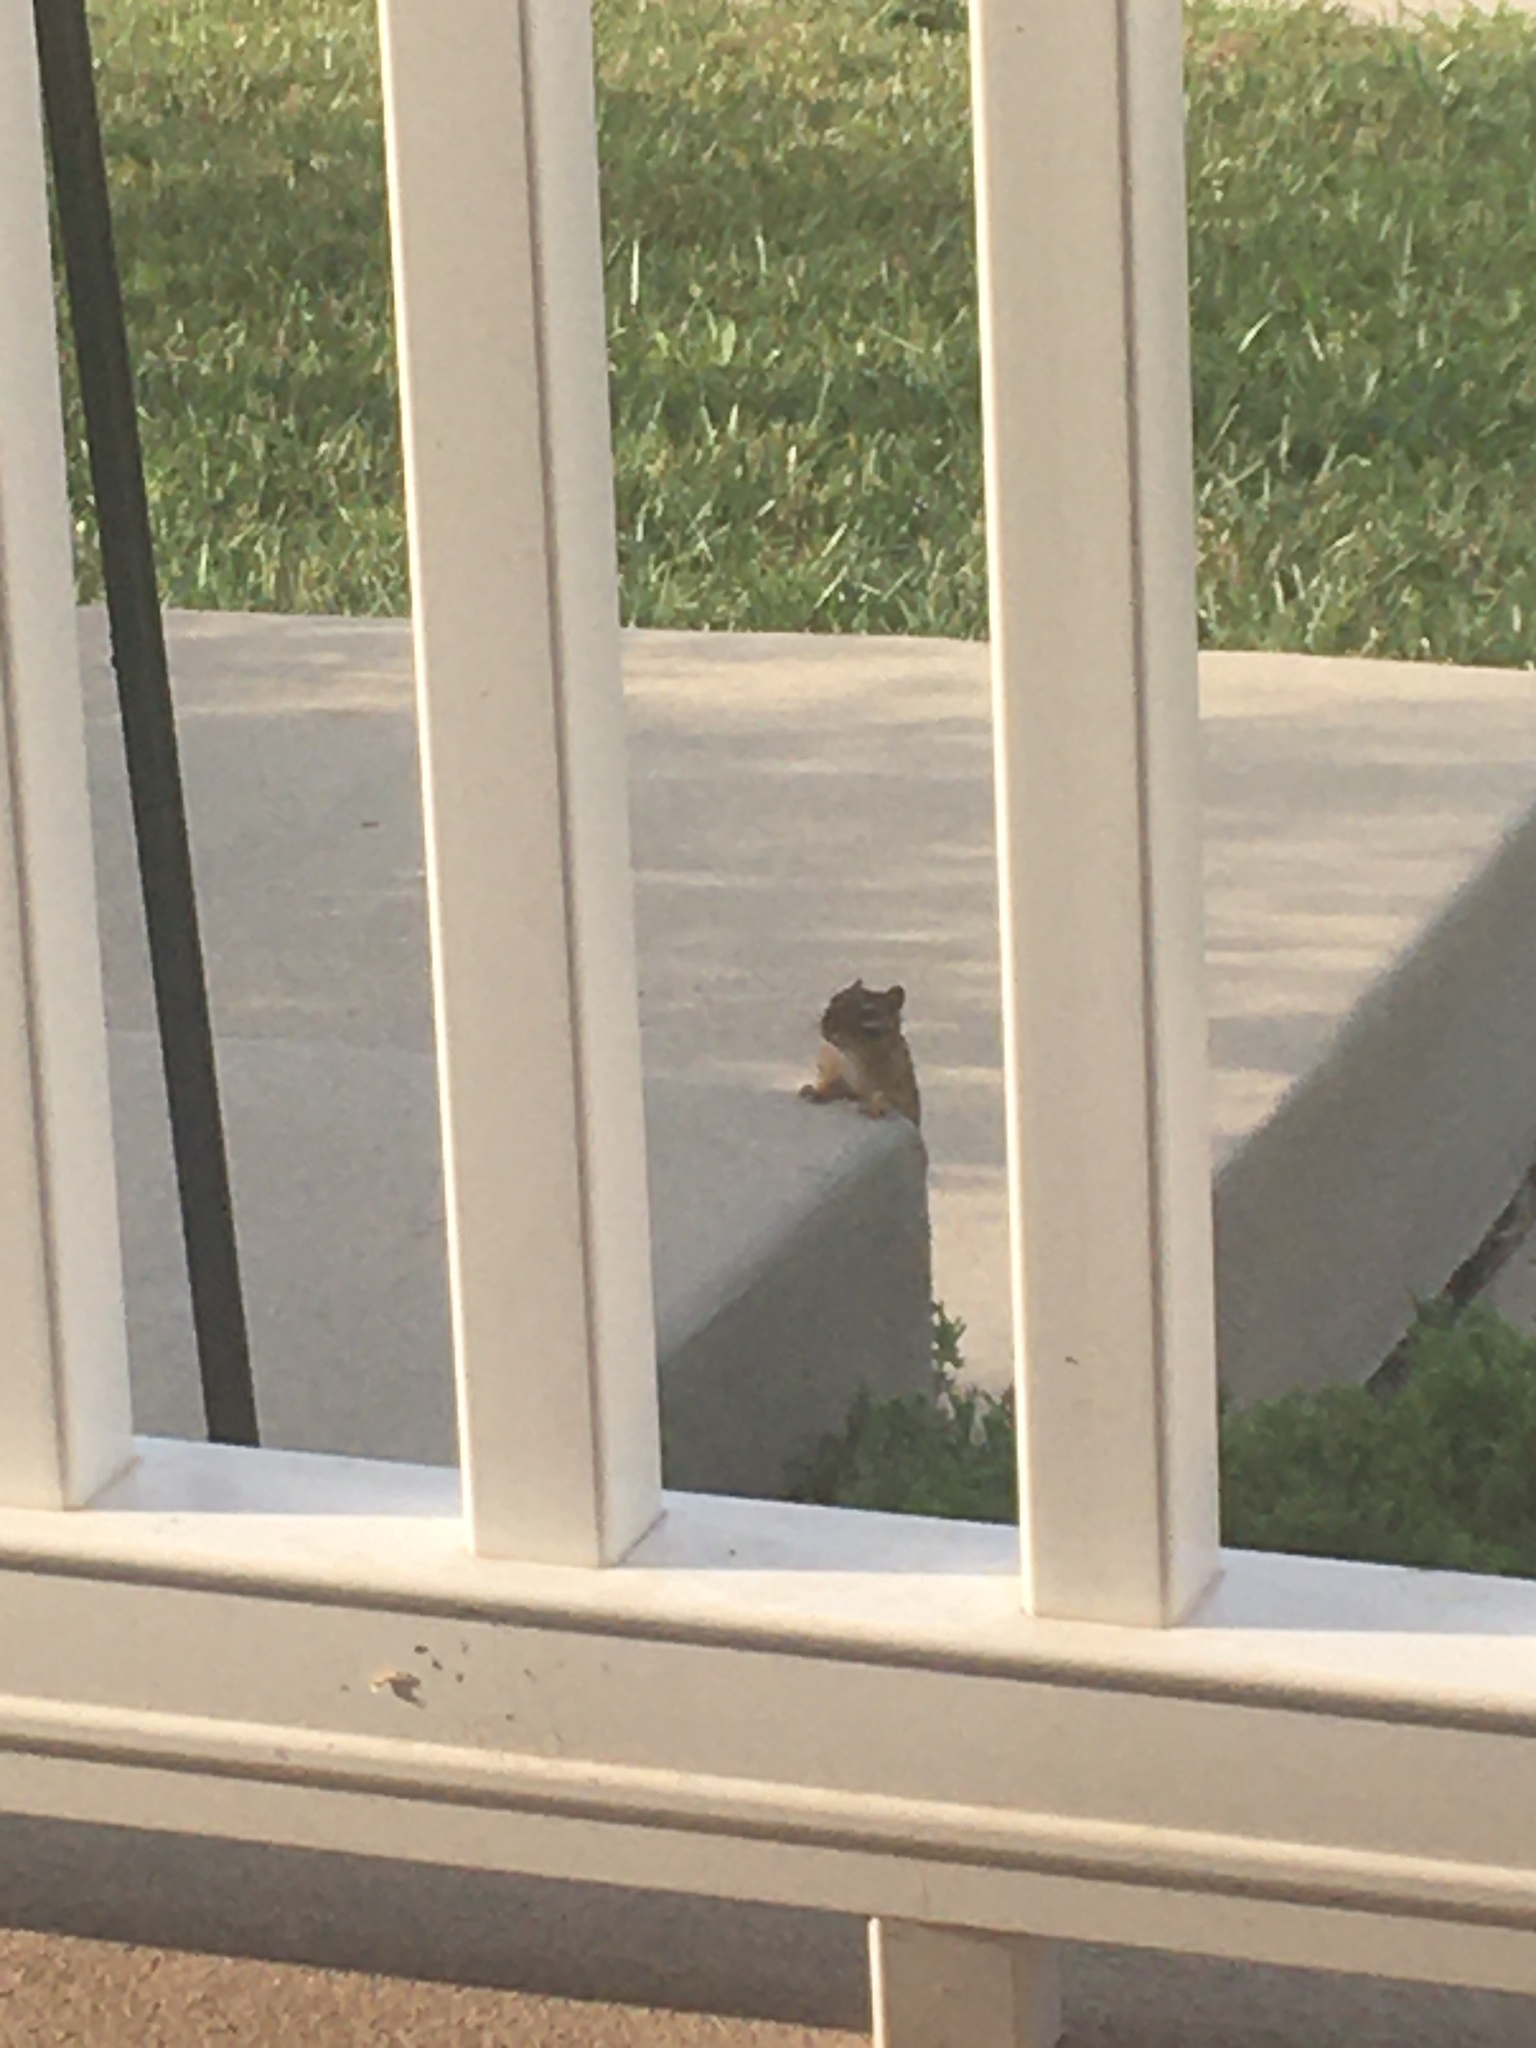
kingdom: Animalia
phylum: Chordata
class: Mammalia
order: Rodentia
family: Sciuridae
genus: Tamias
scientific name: Tamias striatus
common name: Eastern chipmunk
